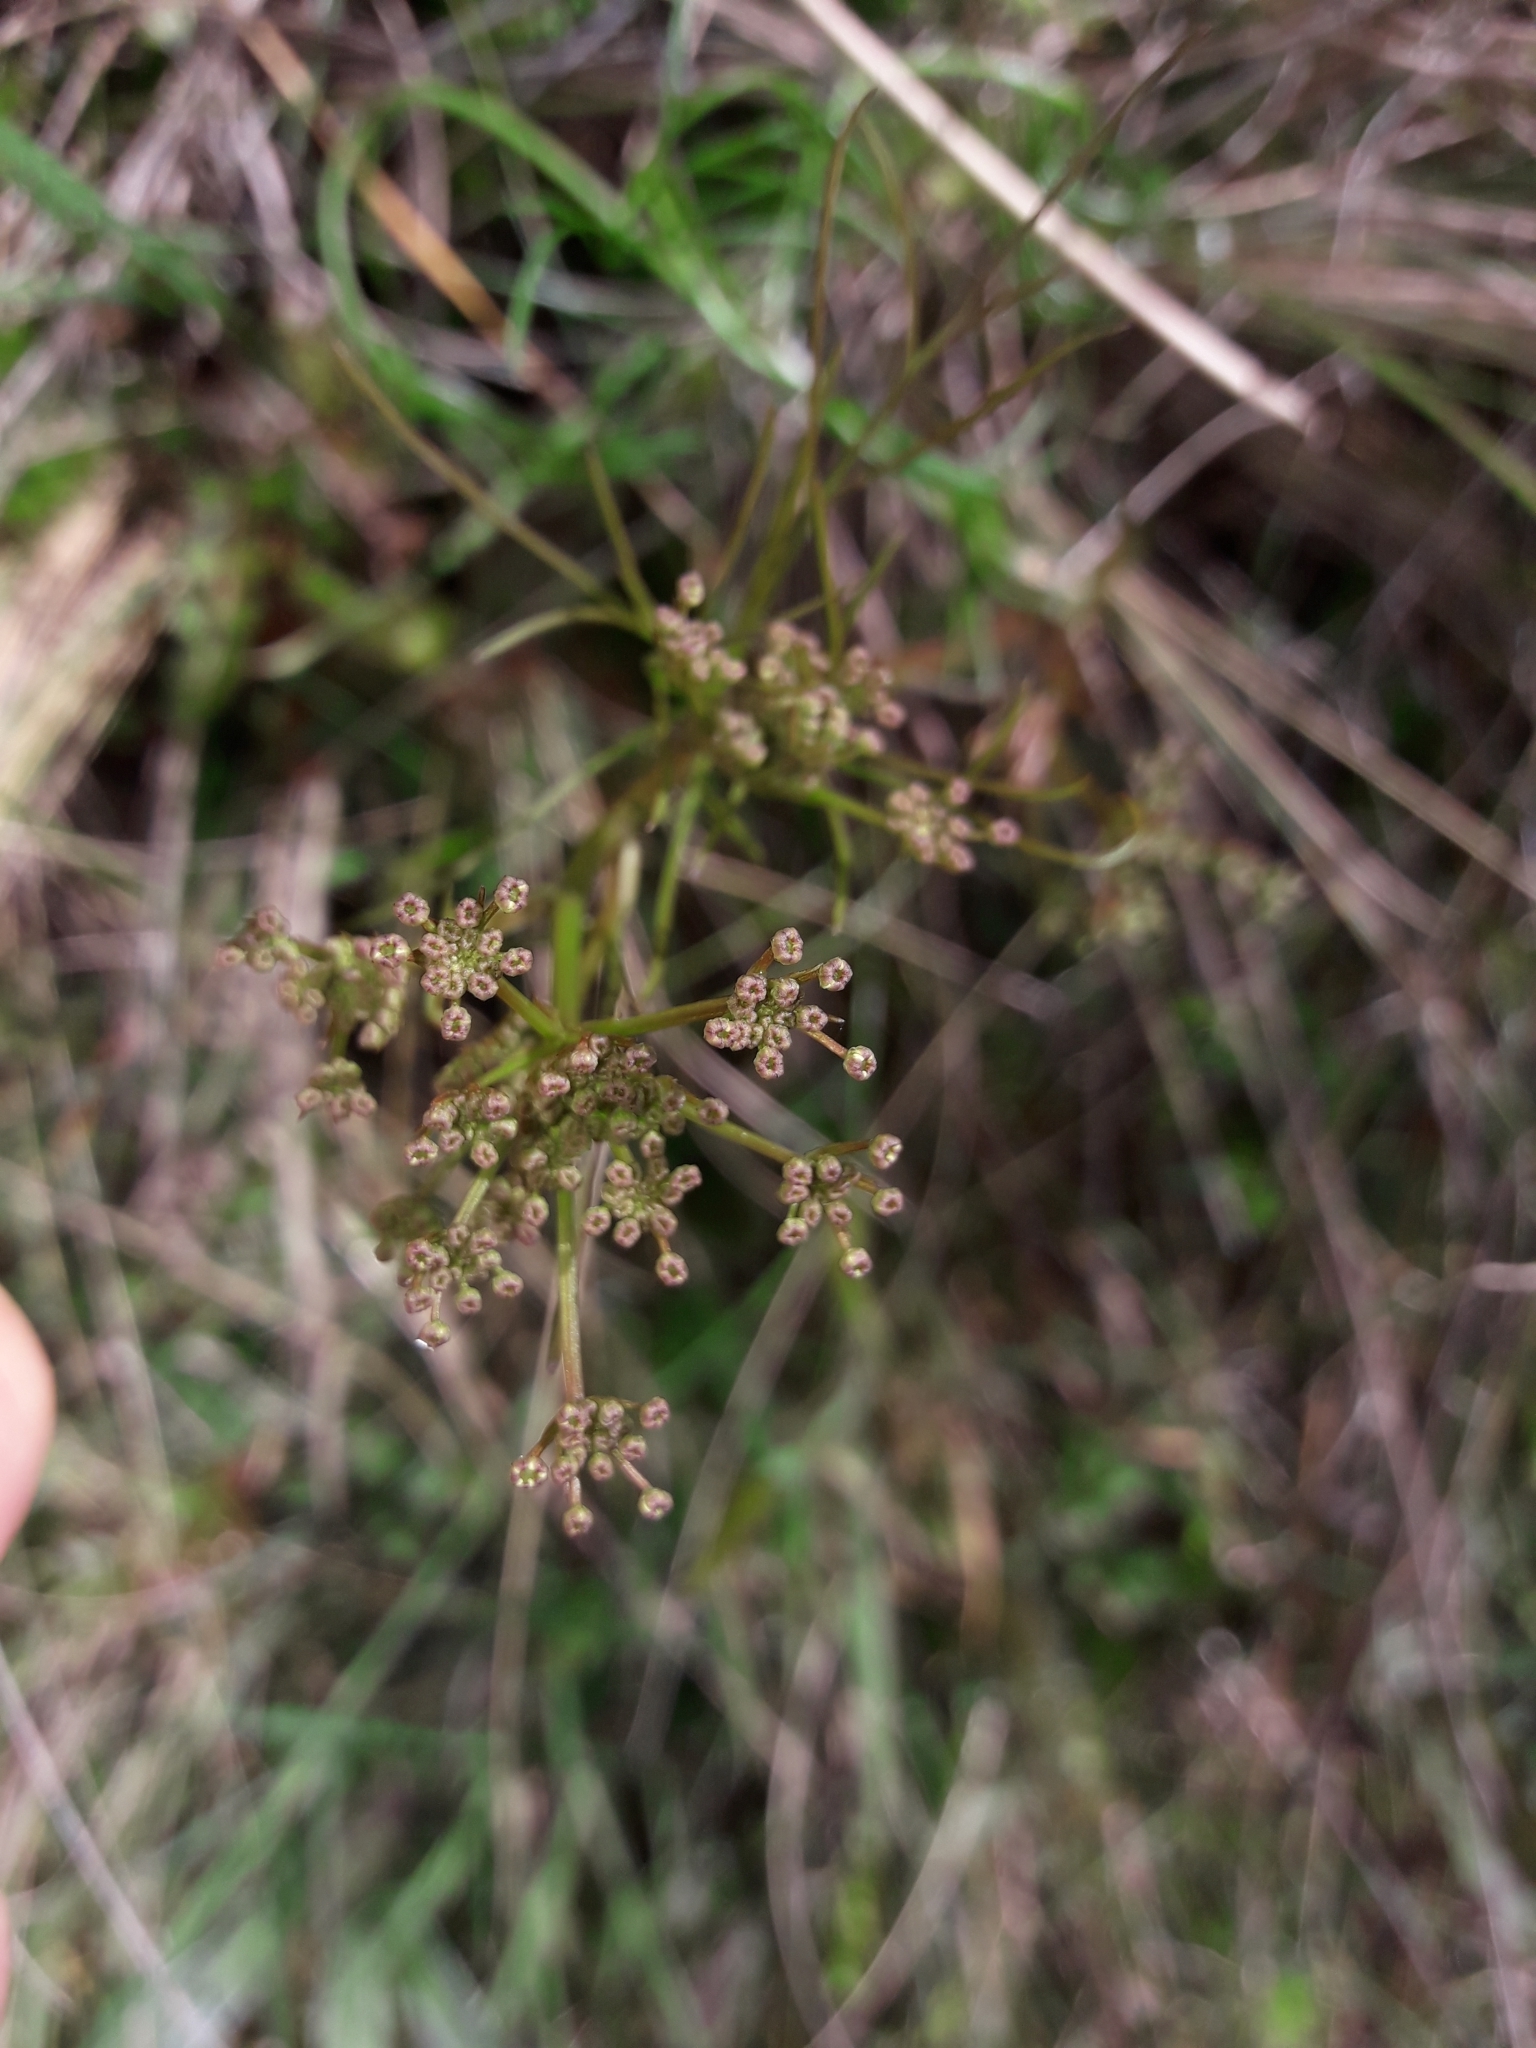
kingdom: Plantae
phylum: Tracheophyta
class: Magnoliopsida
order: Apiales
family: Apiaceae
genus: Anisotome
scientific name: Anisotome filifolia
